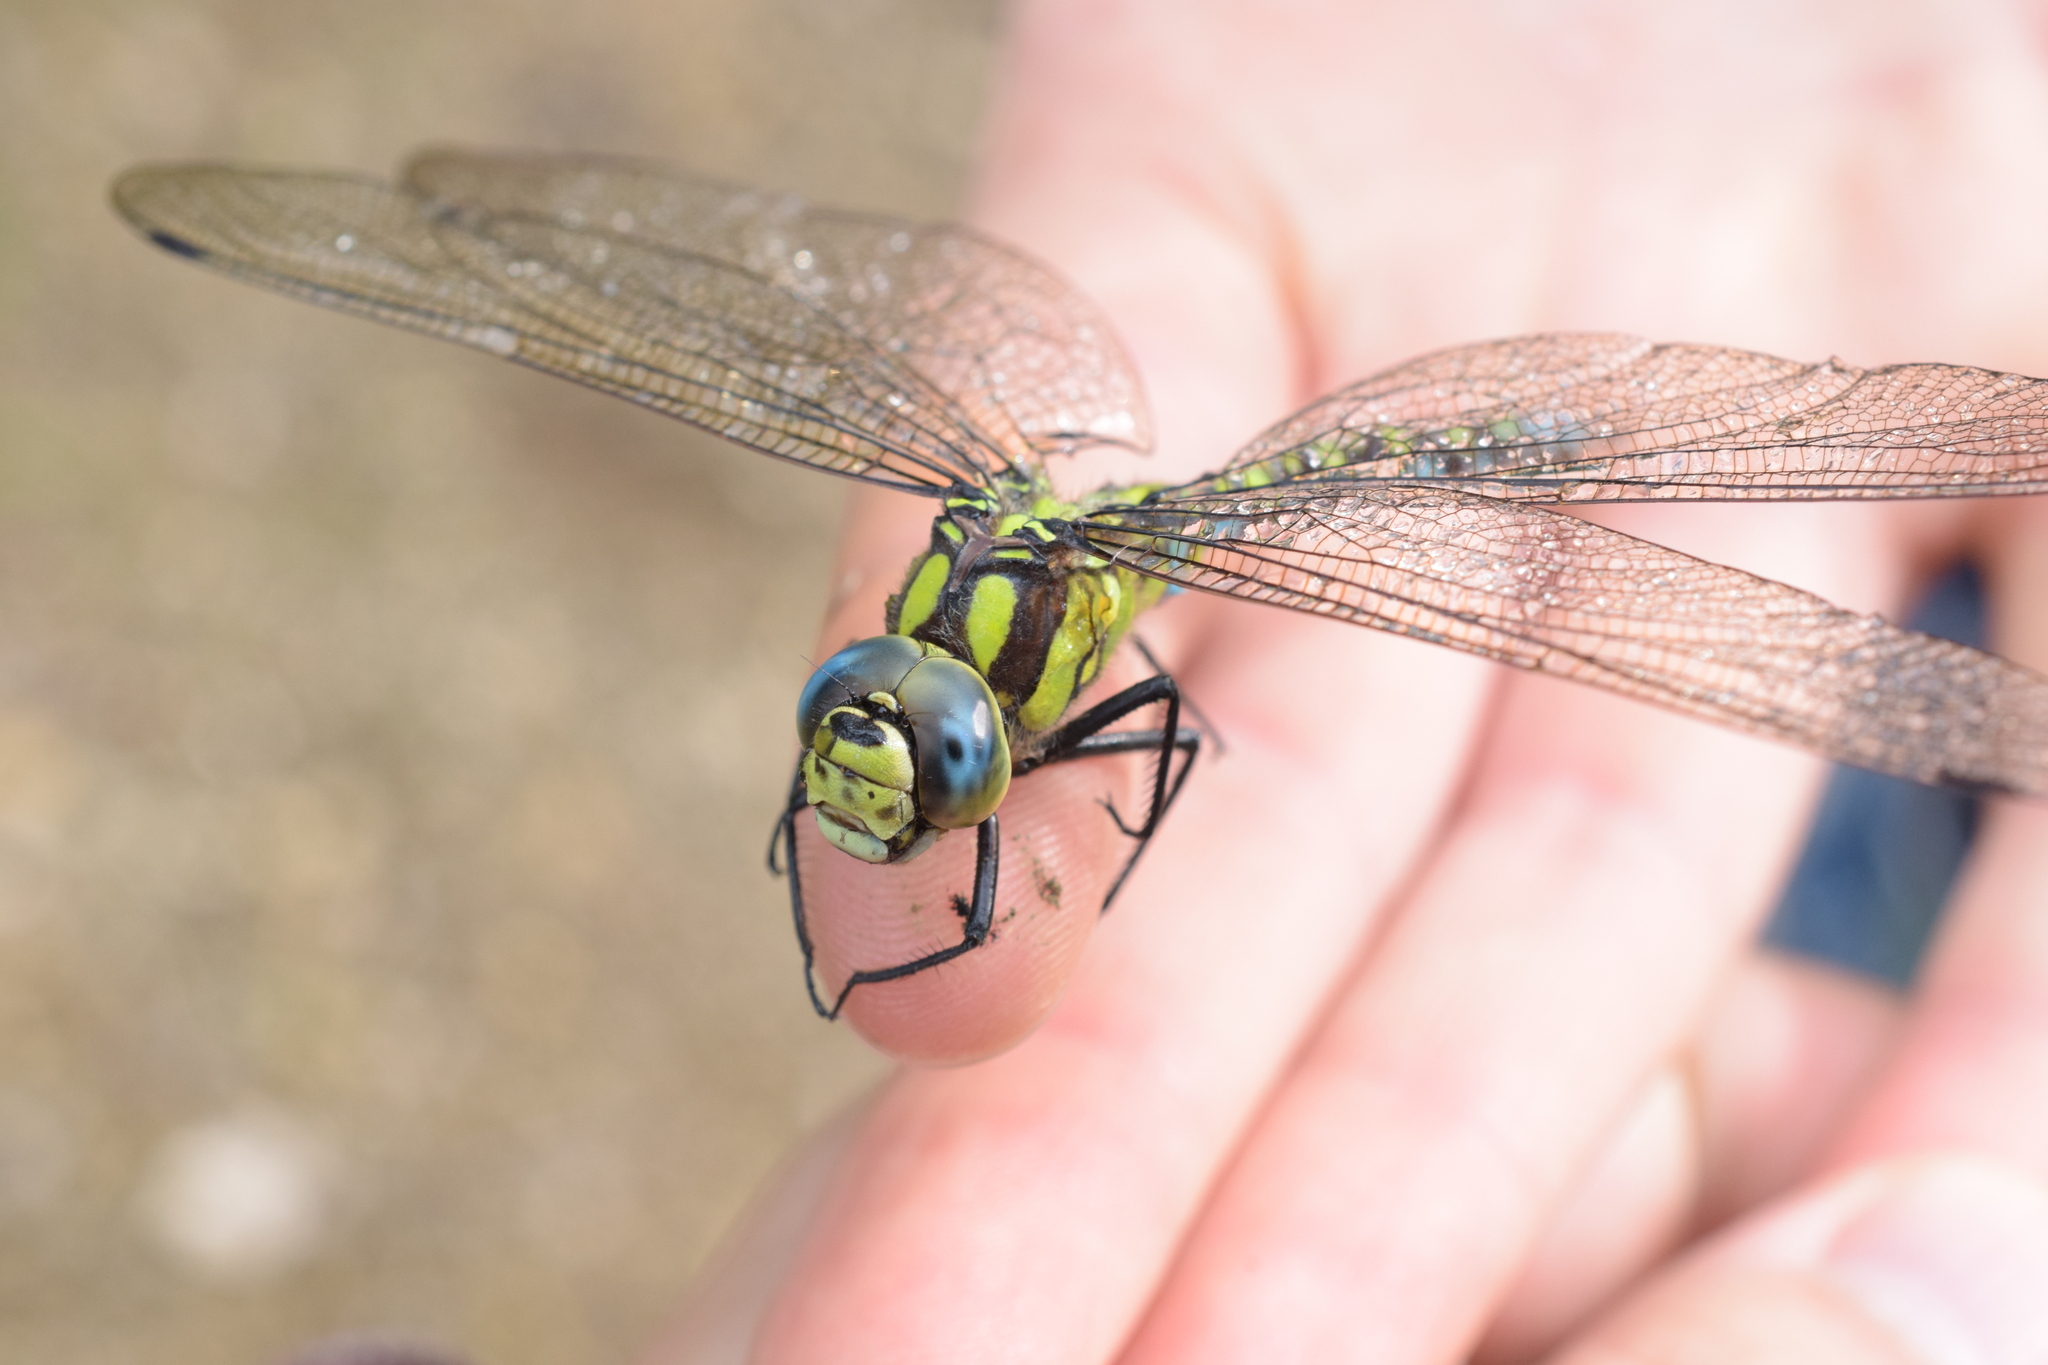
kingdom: Animalia
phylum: Arthropoda
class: Insecta
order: Odonata
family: Aeshnidae
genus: Aeshna
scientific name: Aeshna cyanea
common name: Southern hawker
